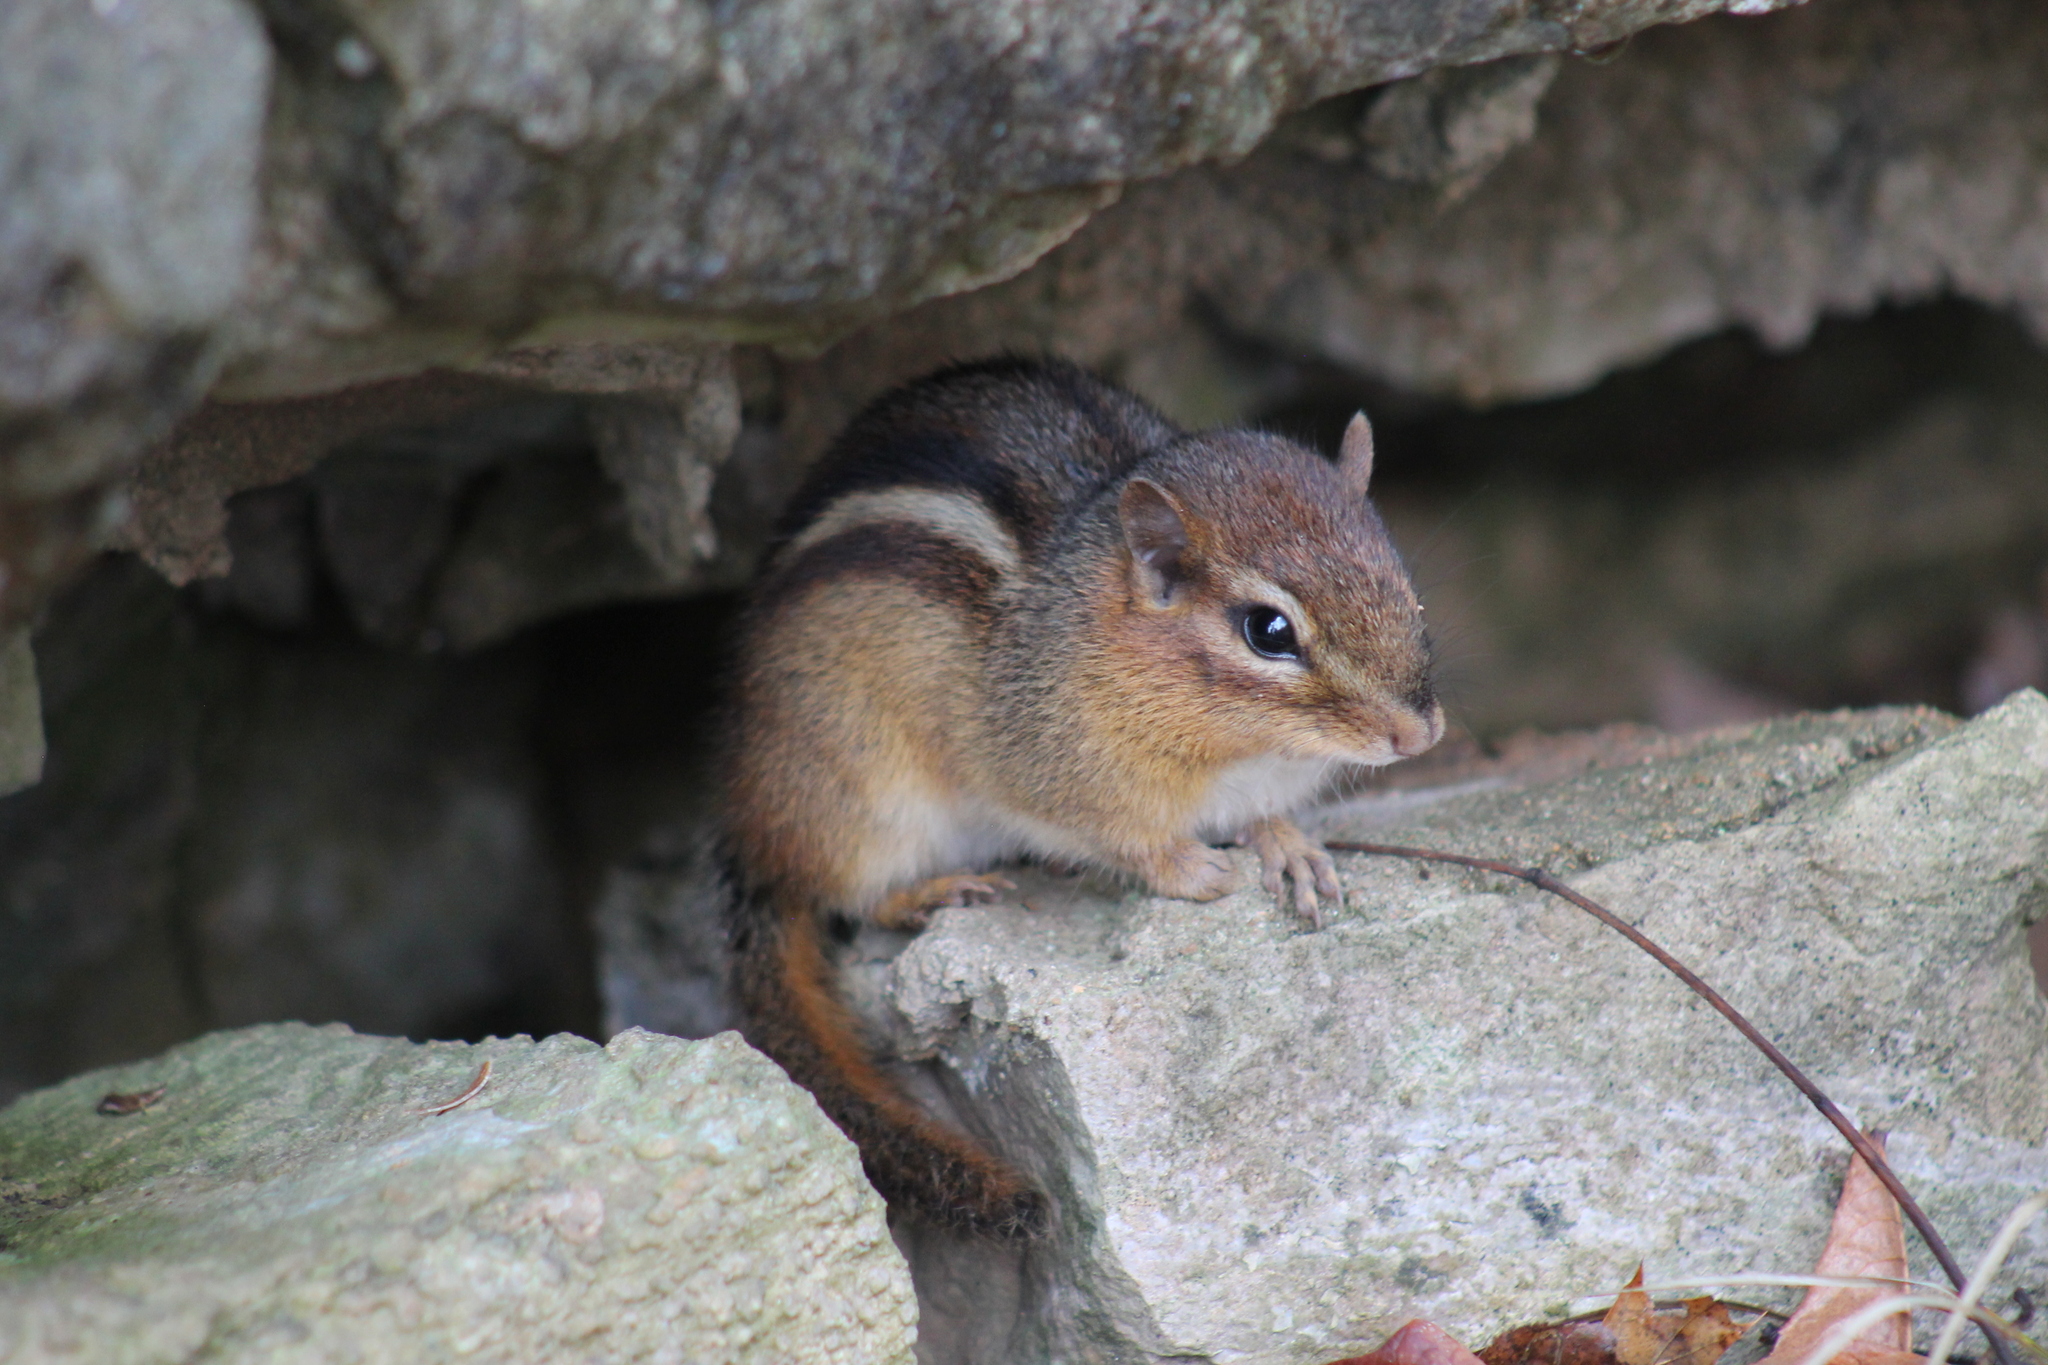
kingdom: Animalia
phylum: Chordata
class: Mammalia
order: Rodentia
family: Sciuridae
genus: Tamias
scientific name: Tamias striatus
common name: Eastern chipmunk
